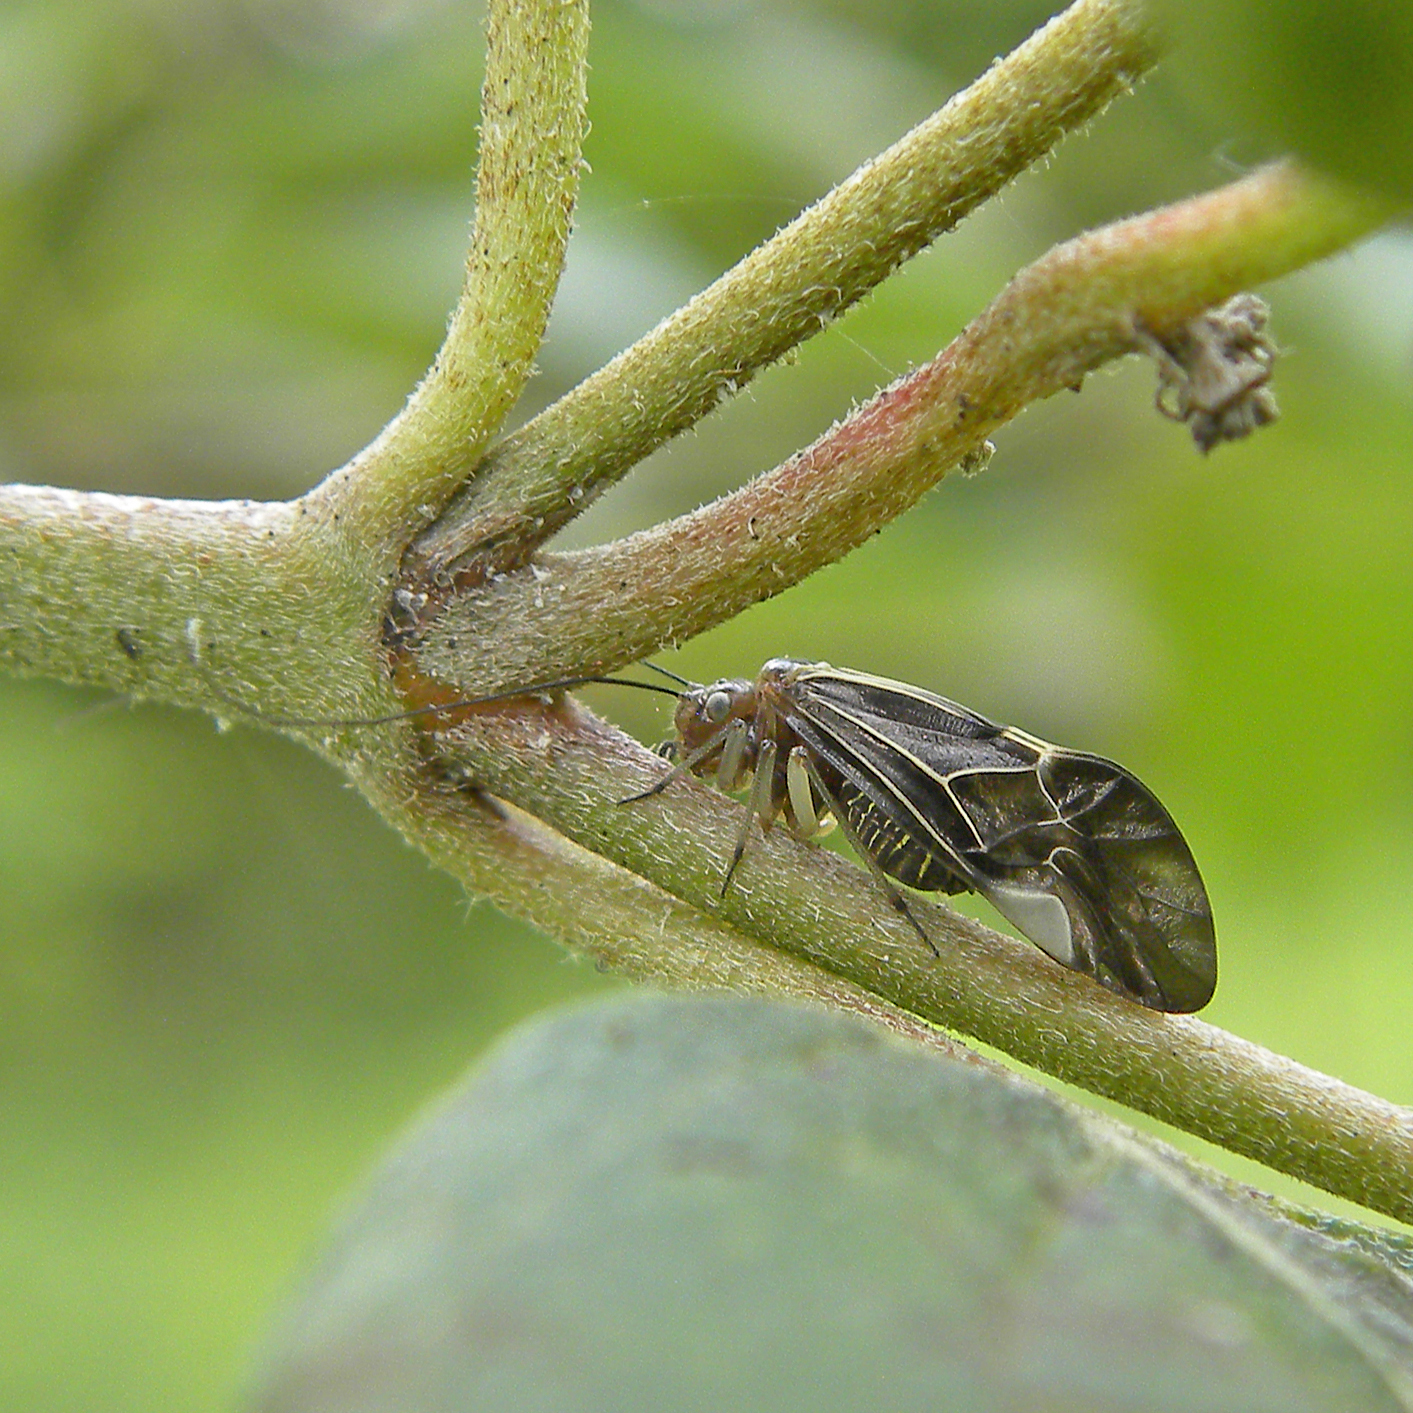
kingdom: Animalia
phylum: Arthropoda
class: Insecta
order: Psocodea
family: Psocidae
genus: Cerastipsocus
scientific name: Cerastipsocus venosus
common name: Tree cattle
